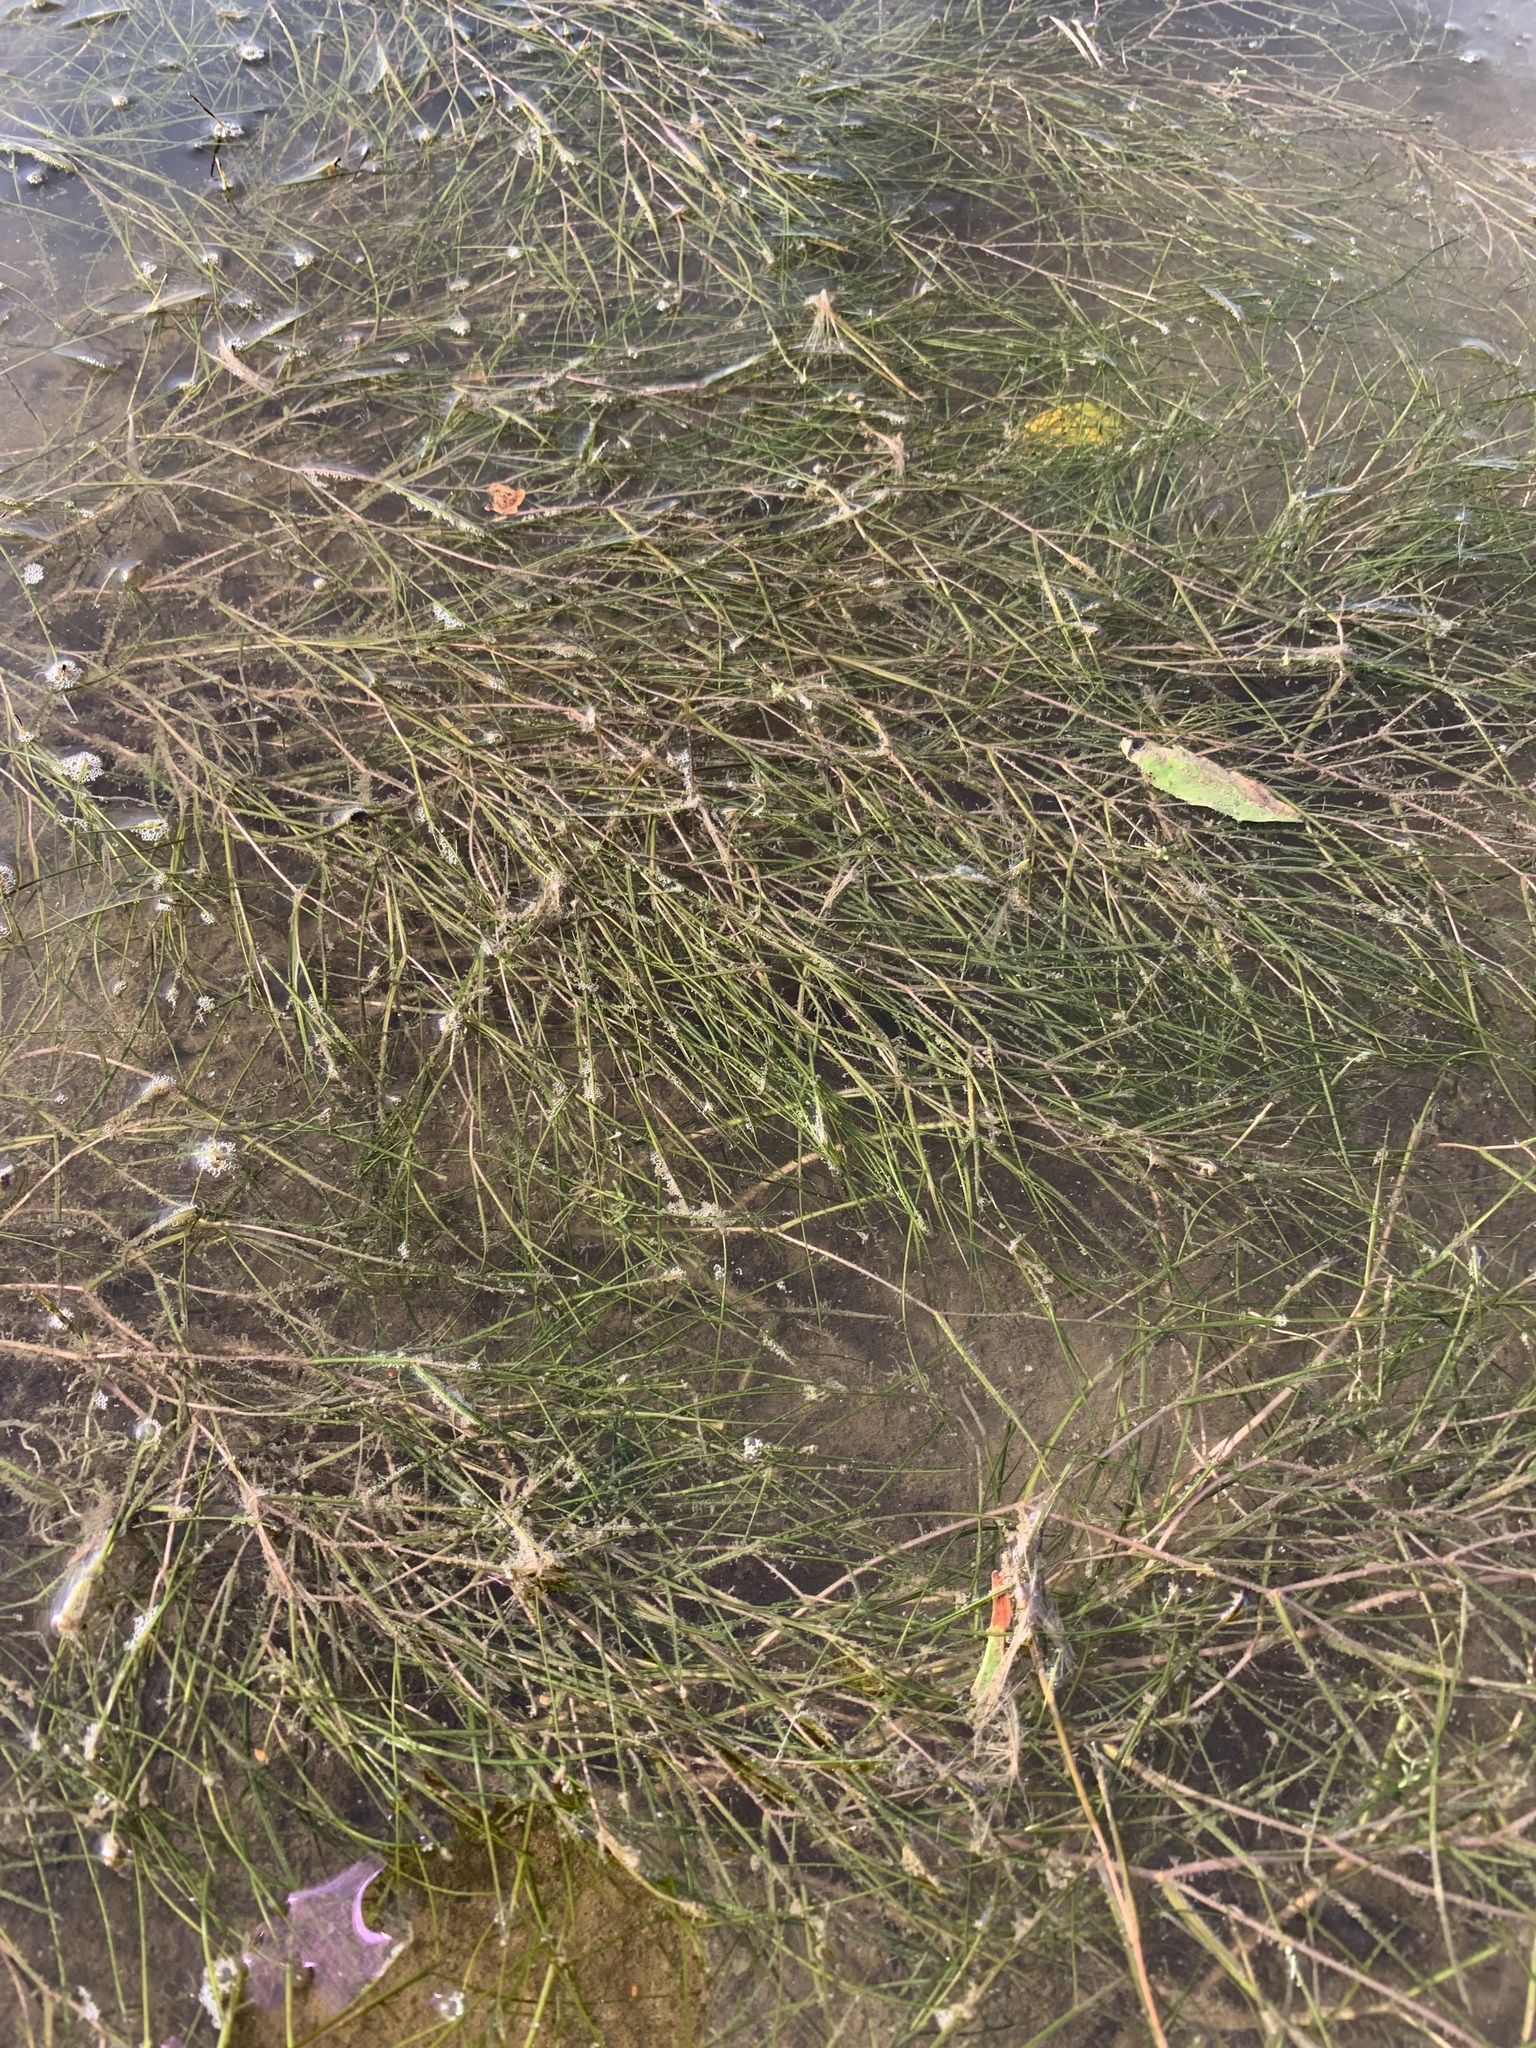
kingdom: Plantae
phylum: Tracheophyta
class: Liliopsida
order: Alismatales
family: Potamogetonaceae
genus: Stuckenia
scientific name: Stuckenia pectinata
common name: Sago pondweed
